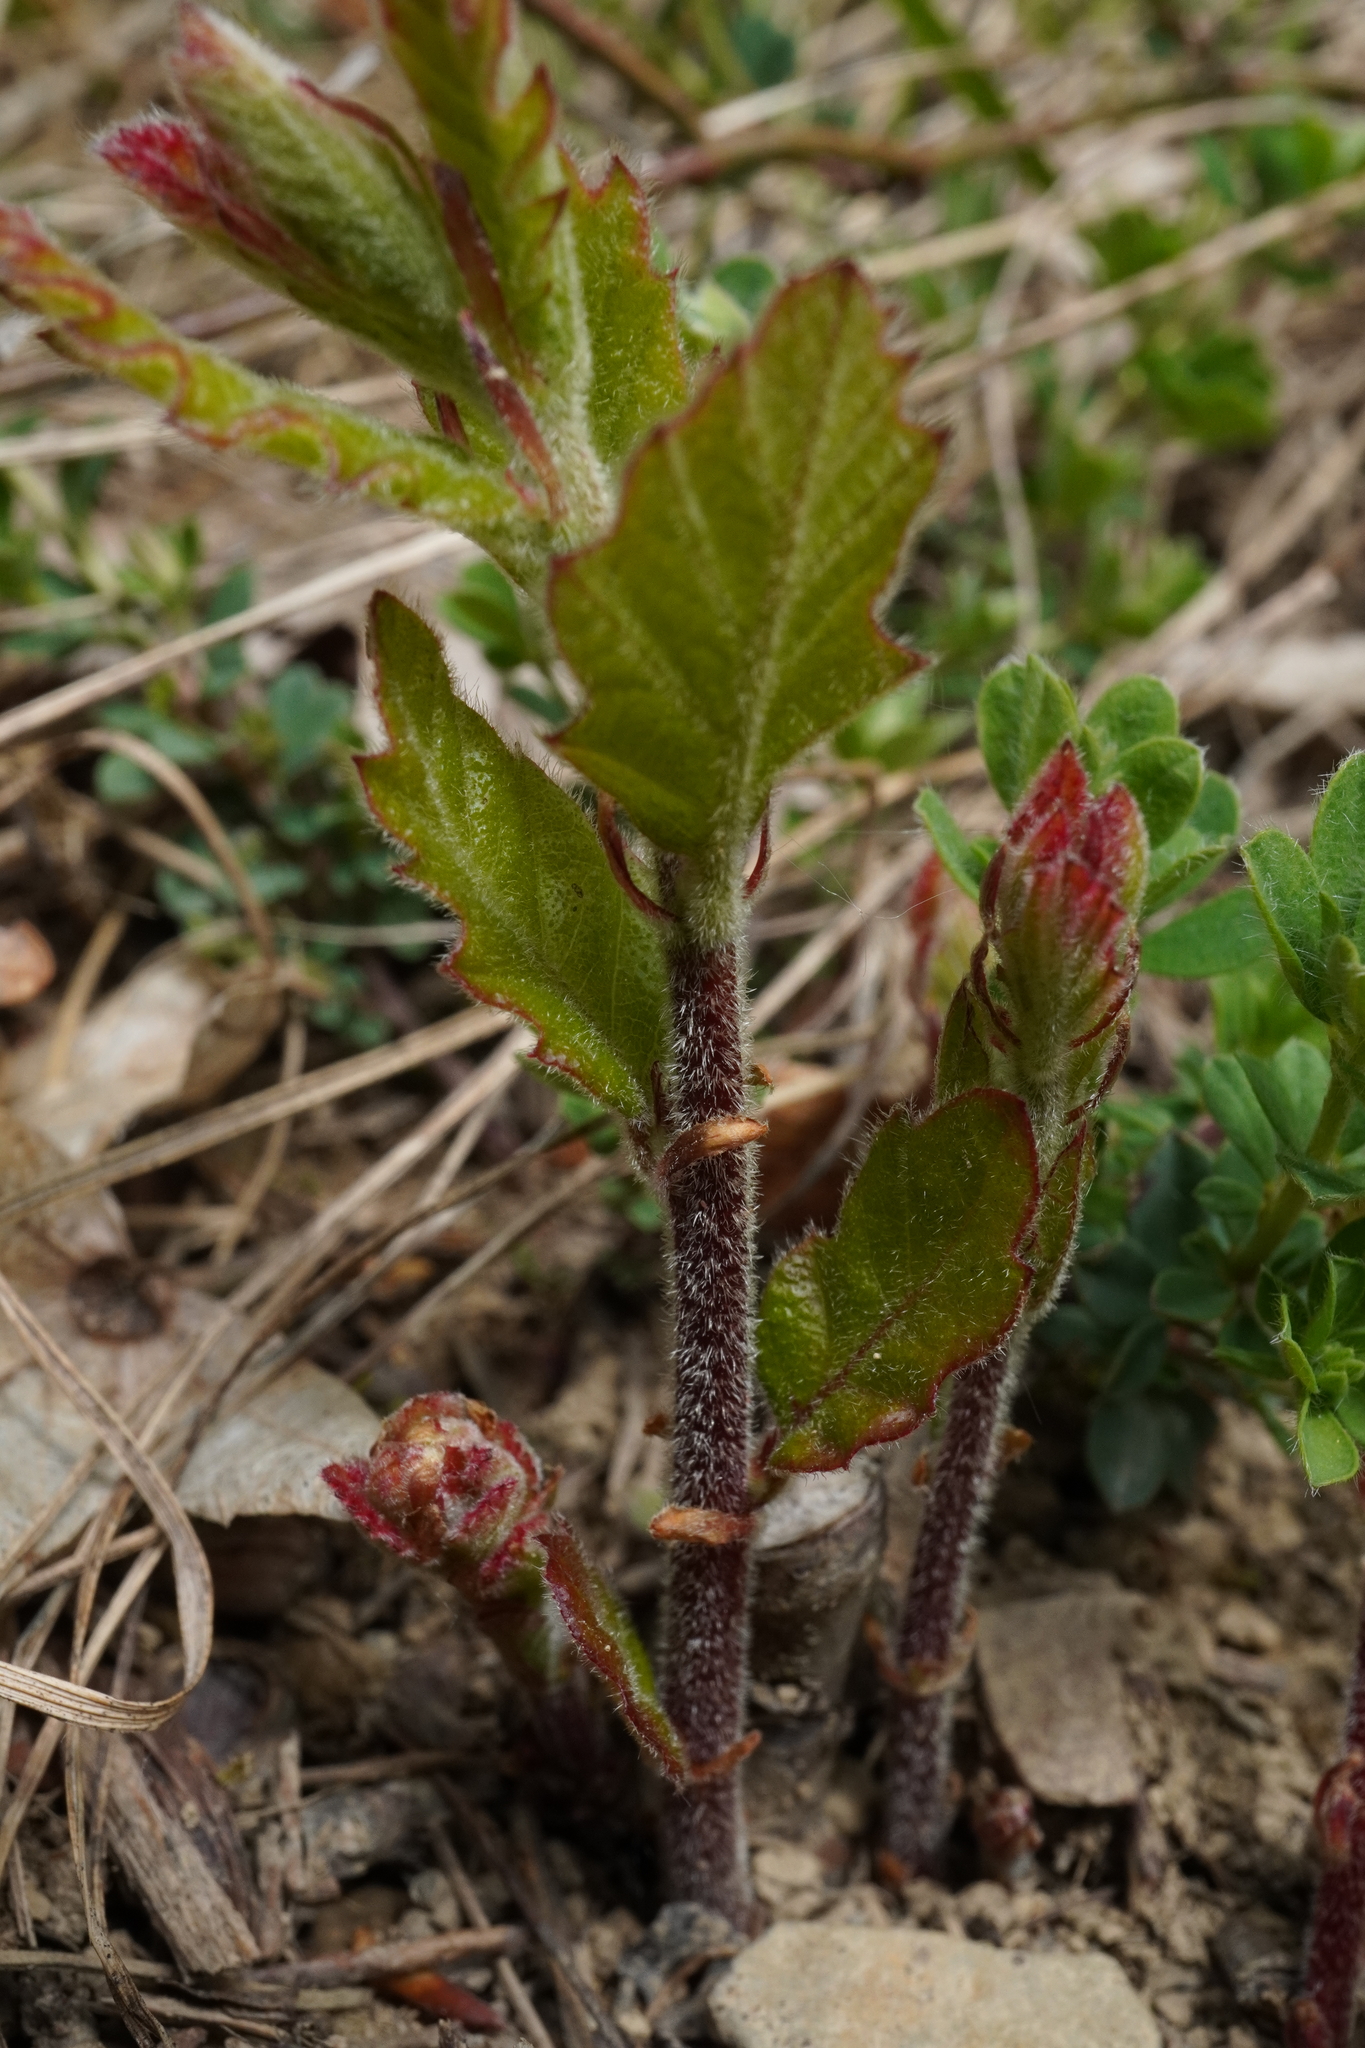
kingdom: Plantae
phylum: Tracheophyta
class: Magnoliopsida
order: Fagales
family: Fagaceae
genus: Quercus
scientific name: Quercus cerris
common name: Turkey oak
